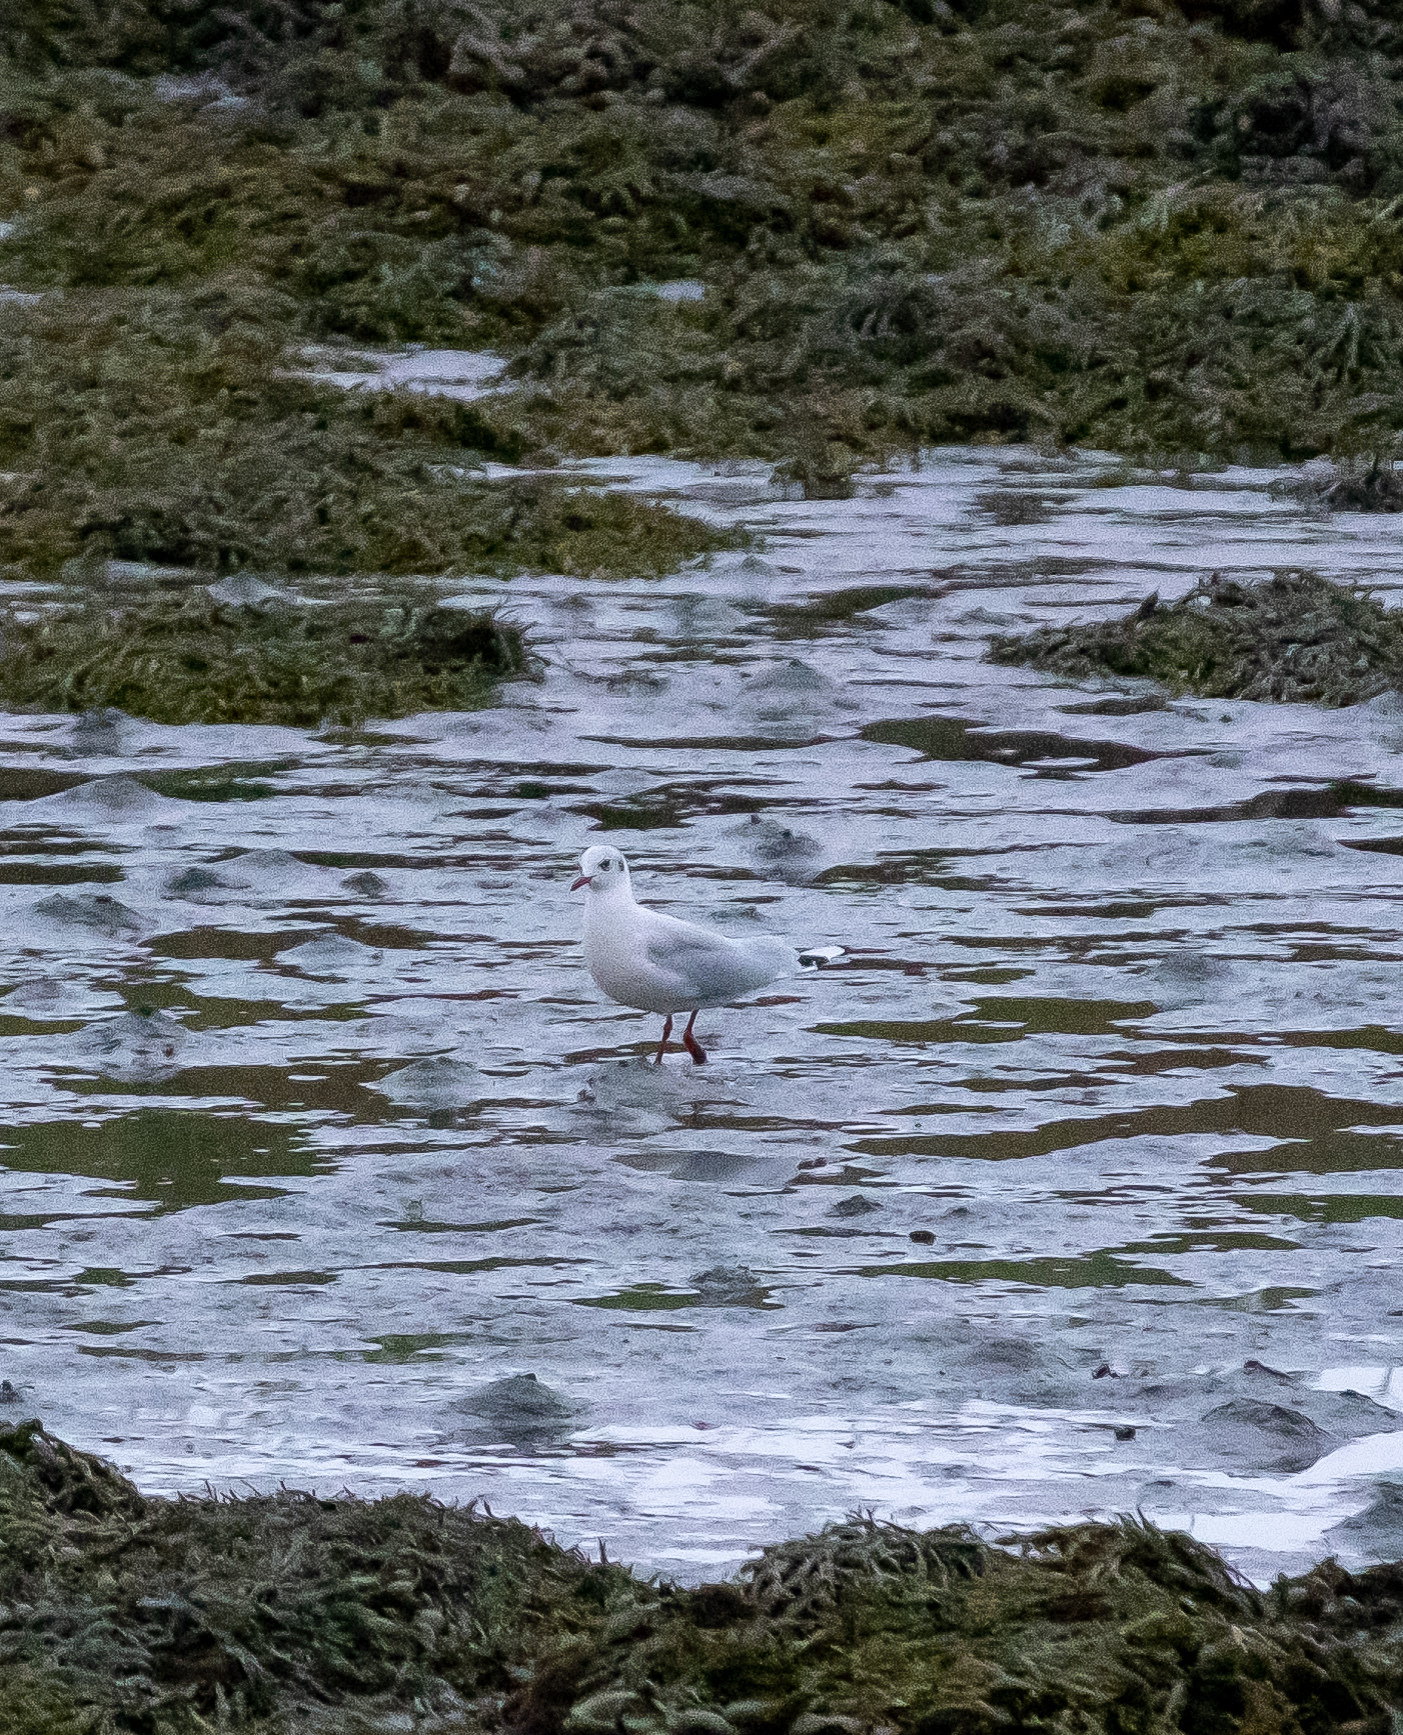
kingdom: Animalia
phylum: Chordata
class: Aves
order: Charadriiformes
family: Laridae
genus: Chroicocephalus
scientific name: Chroicocephalus ridibundus
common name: Black-headed gull
